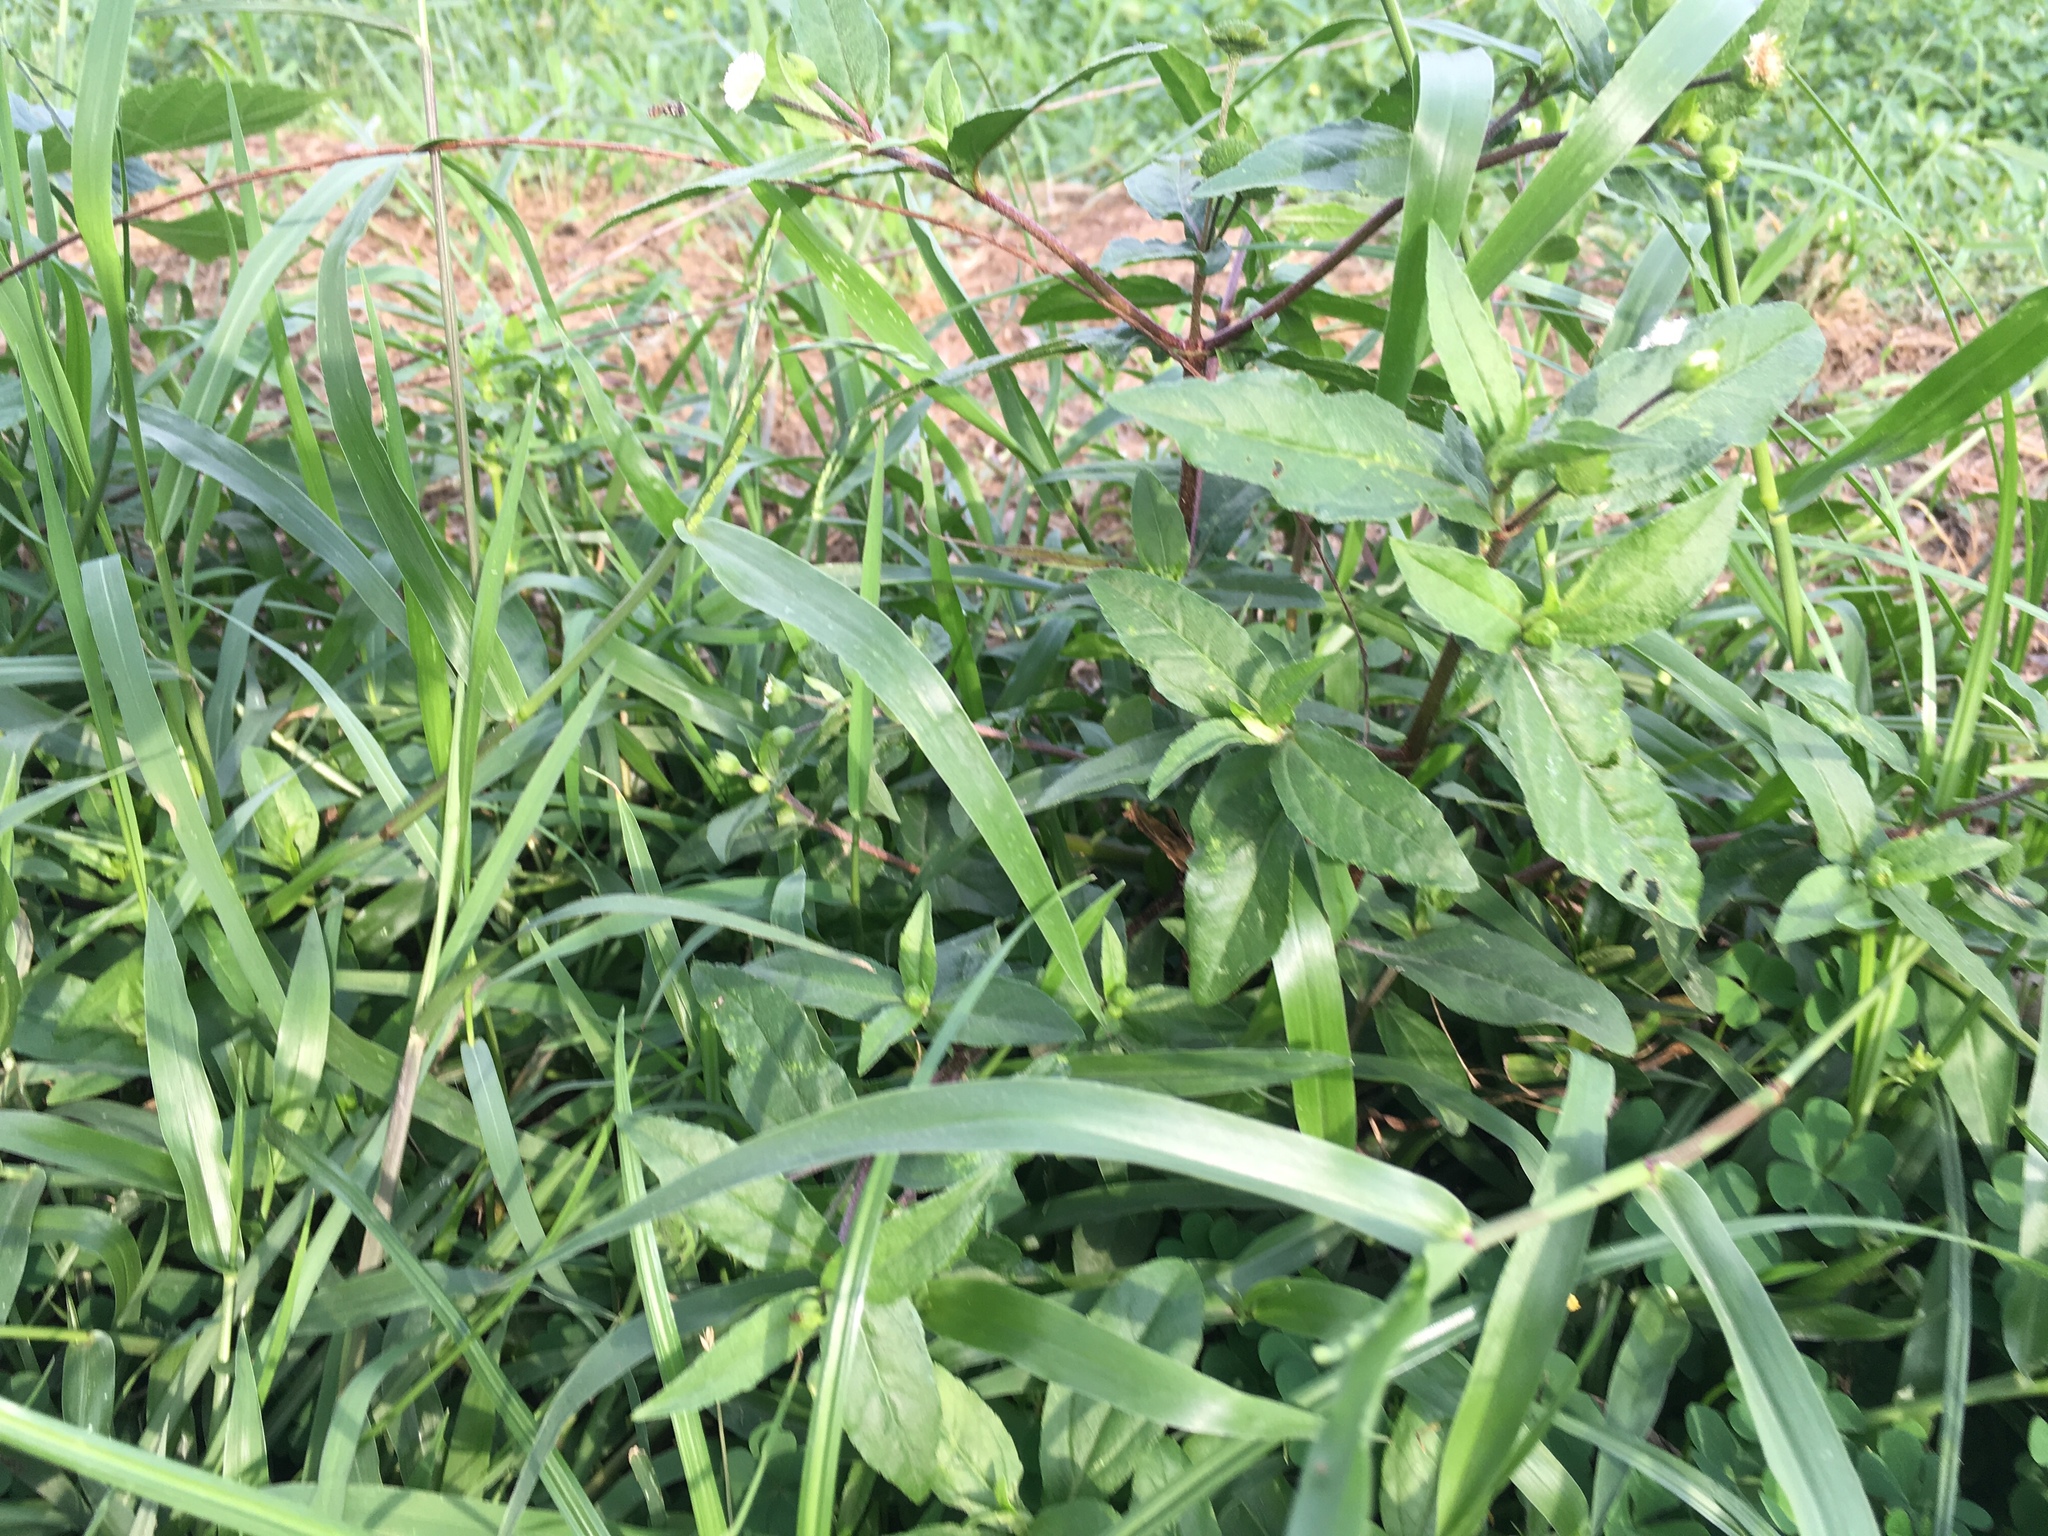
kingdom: Plantae
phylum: Tracheophyta
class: Magnoliopsida
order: Asterales
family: Asteraceae
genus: Eclipta
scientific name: Eclipta prostrata
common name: False daisy
